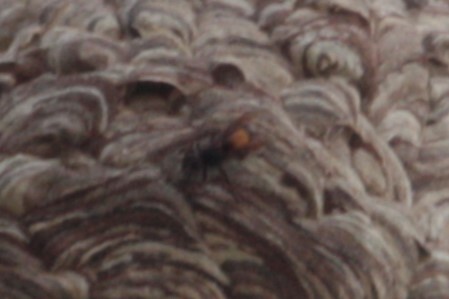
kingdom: Animalia
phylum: Arthropoda
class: Insecta
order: Hymenoptera
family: Vespidae
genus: Vespa
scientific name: Vespa affinis
